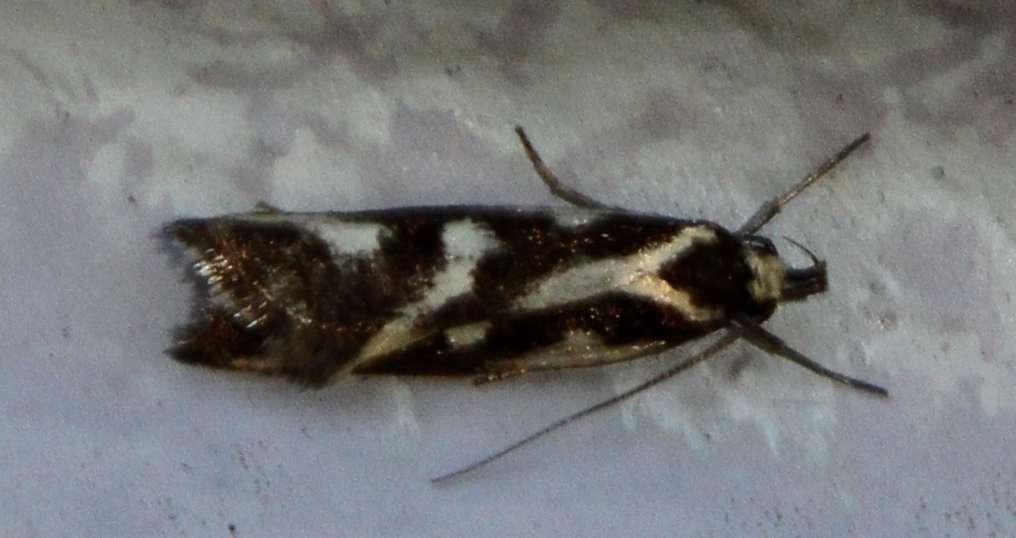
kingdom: Animalia
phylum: Arthropoda
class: Insecta
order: Lepidoptera
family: Oecophoridae
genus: Epithymema
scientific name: Epithymema incomposita
